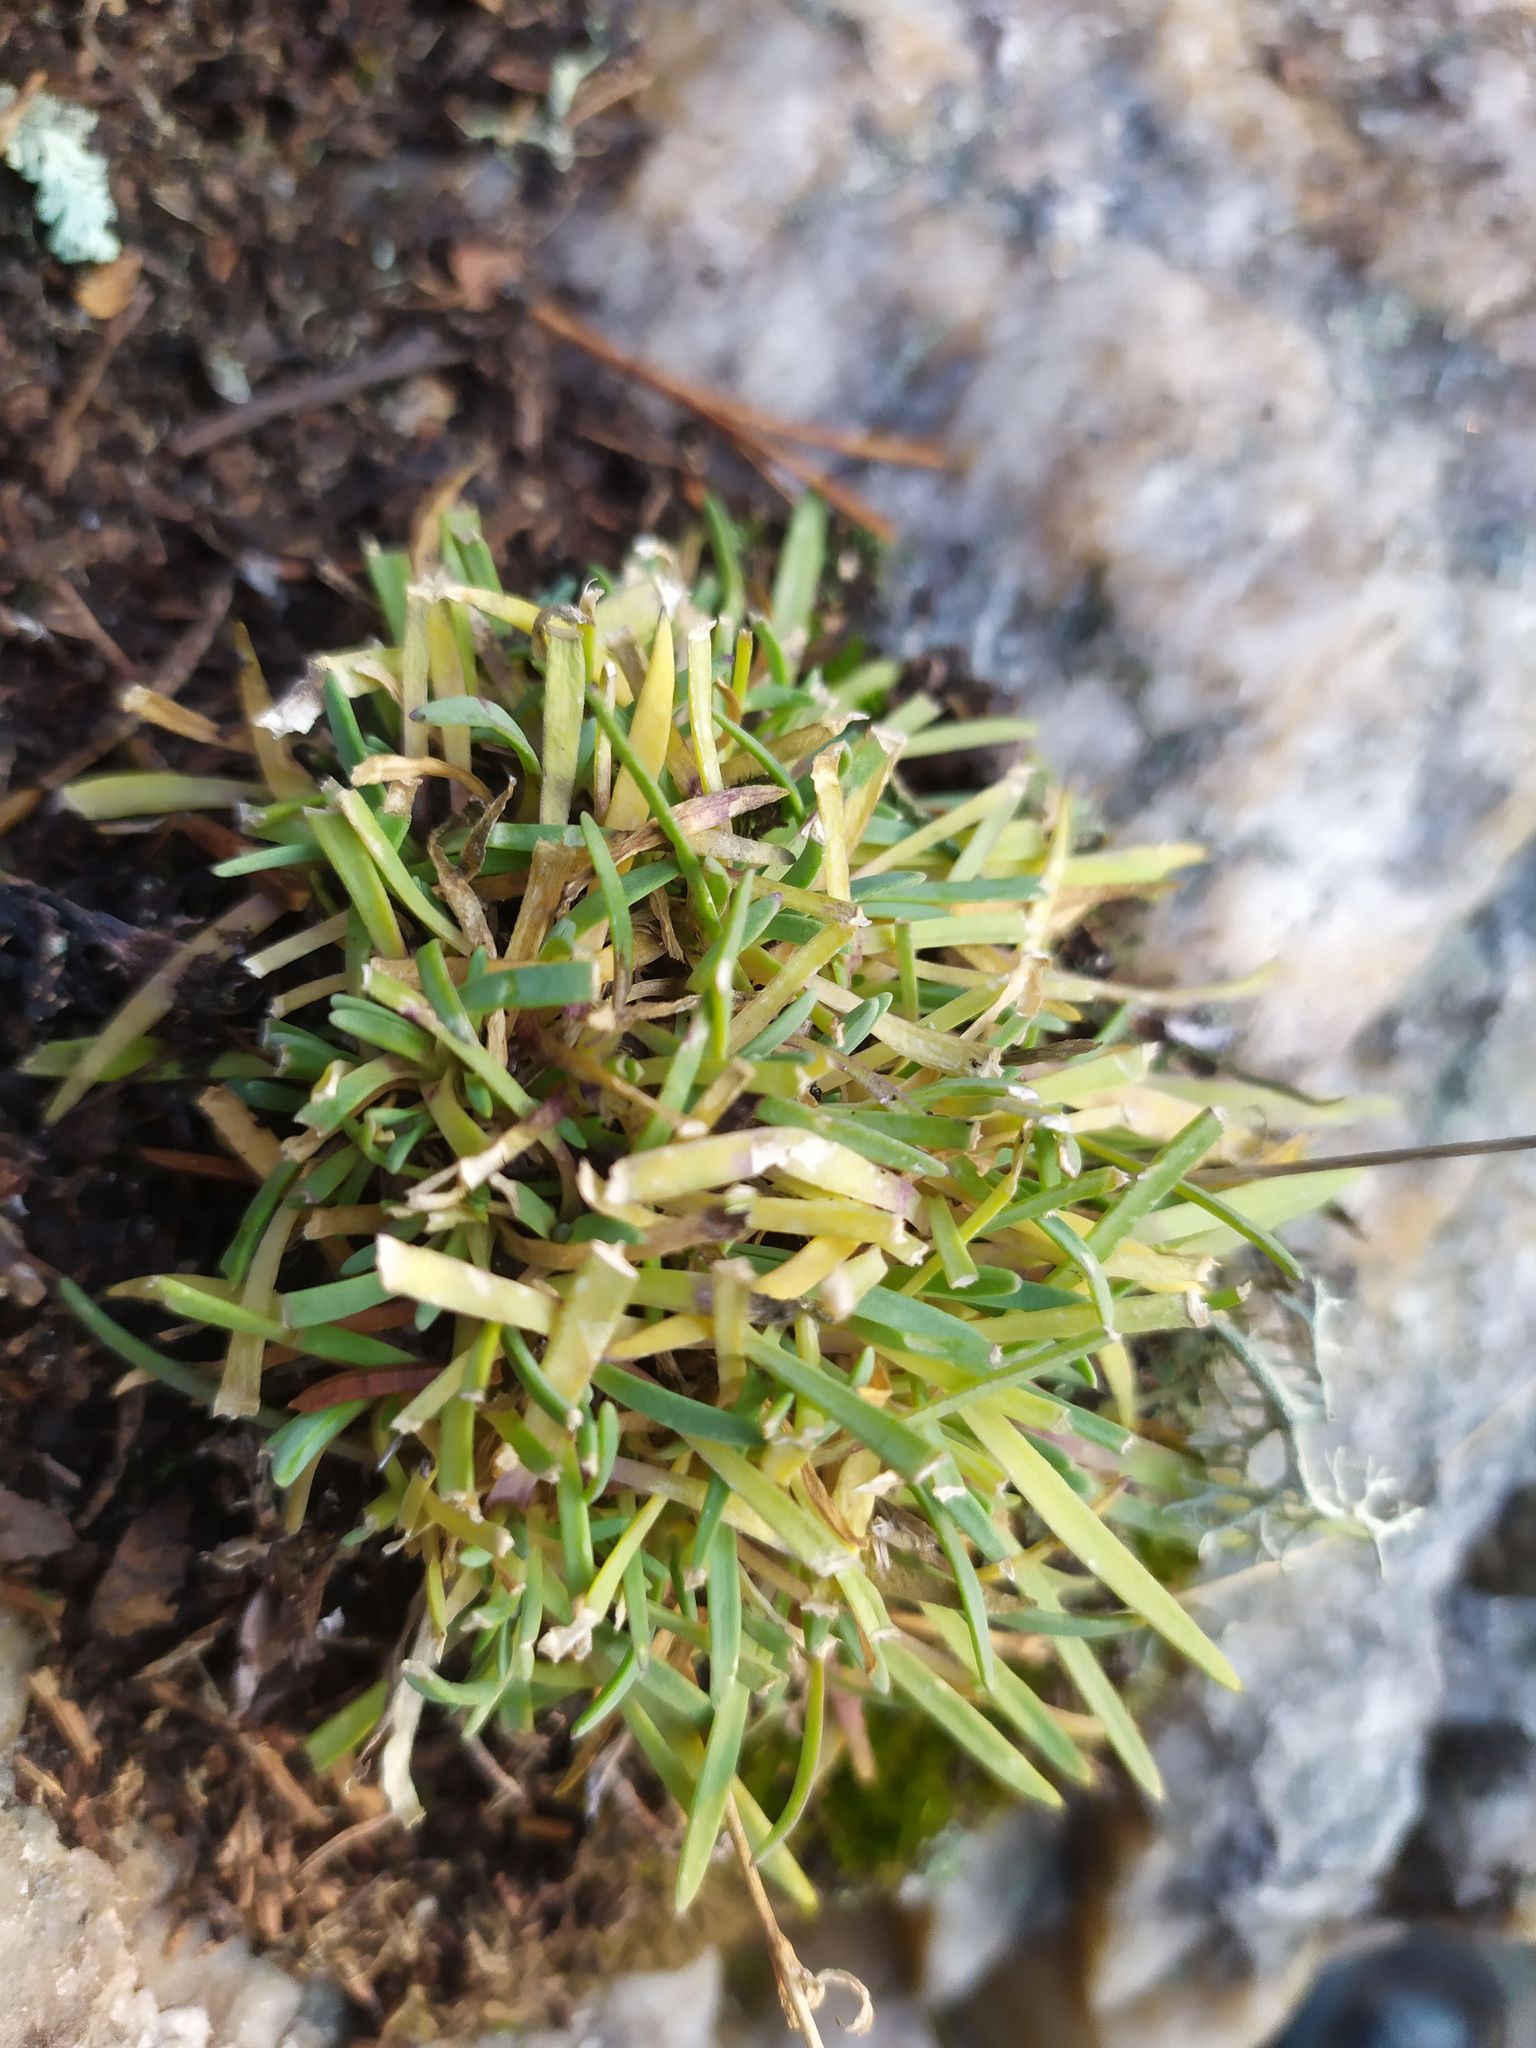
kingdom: Plantae
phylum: Tracheophyta
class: Magnoliopsida
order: Caryophyllales
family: Caryophyllaceae
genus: Gypsophila
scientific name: Gypsophila uralensis
